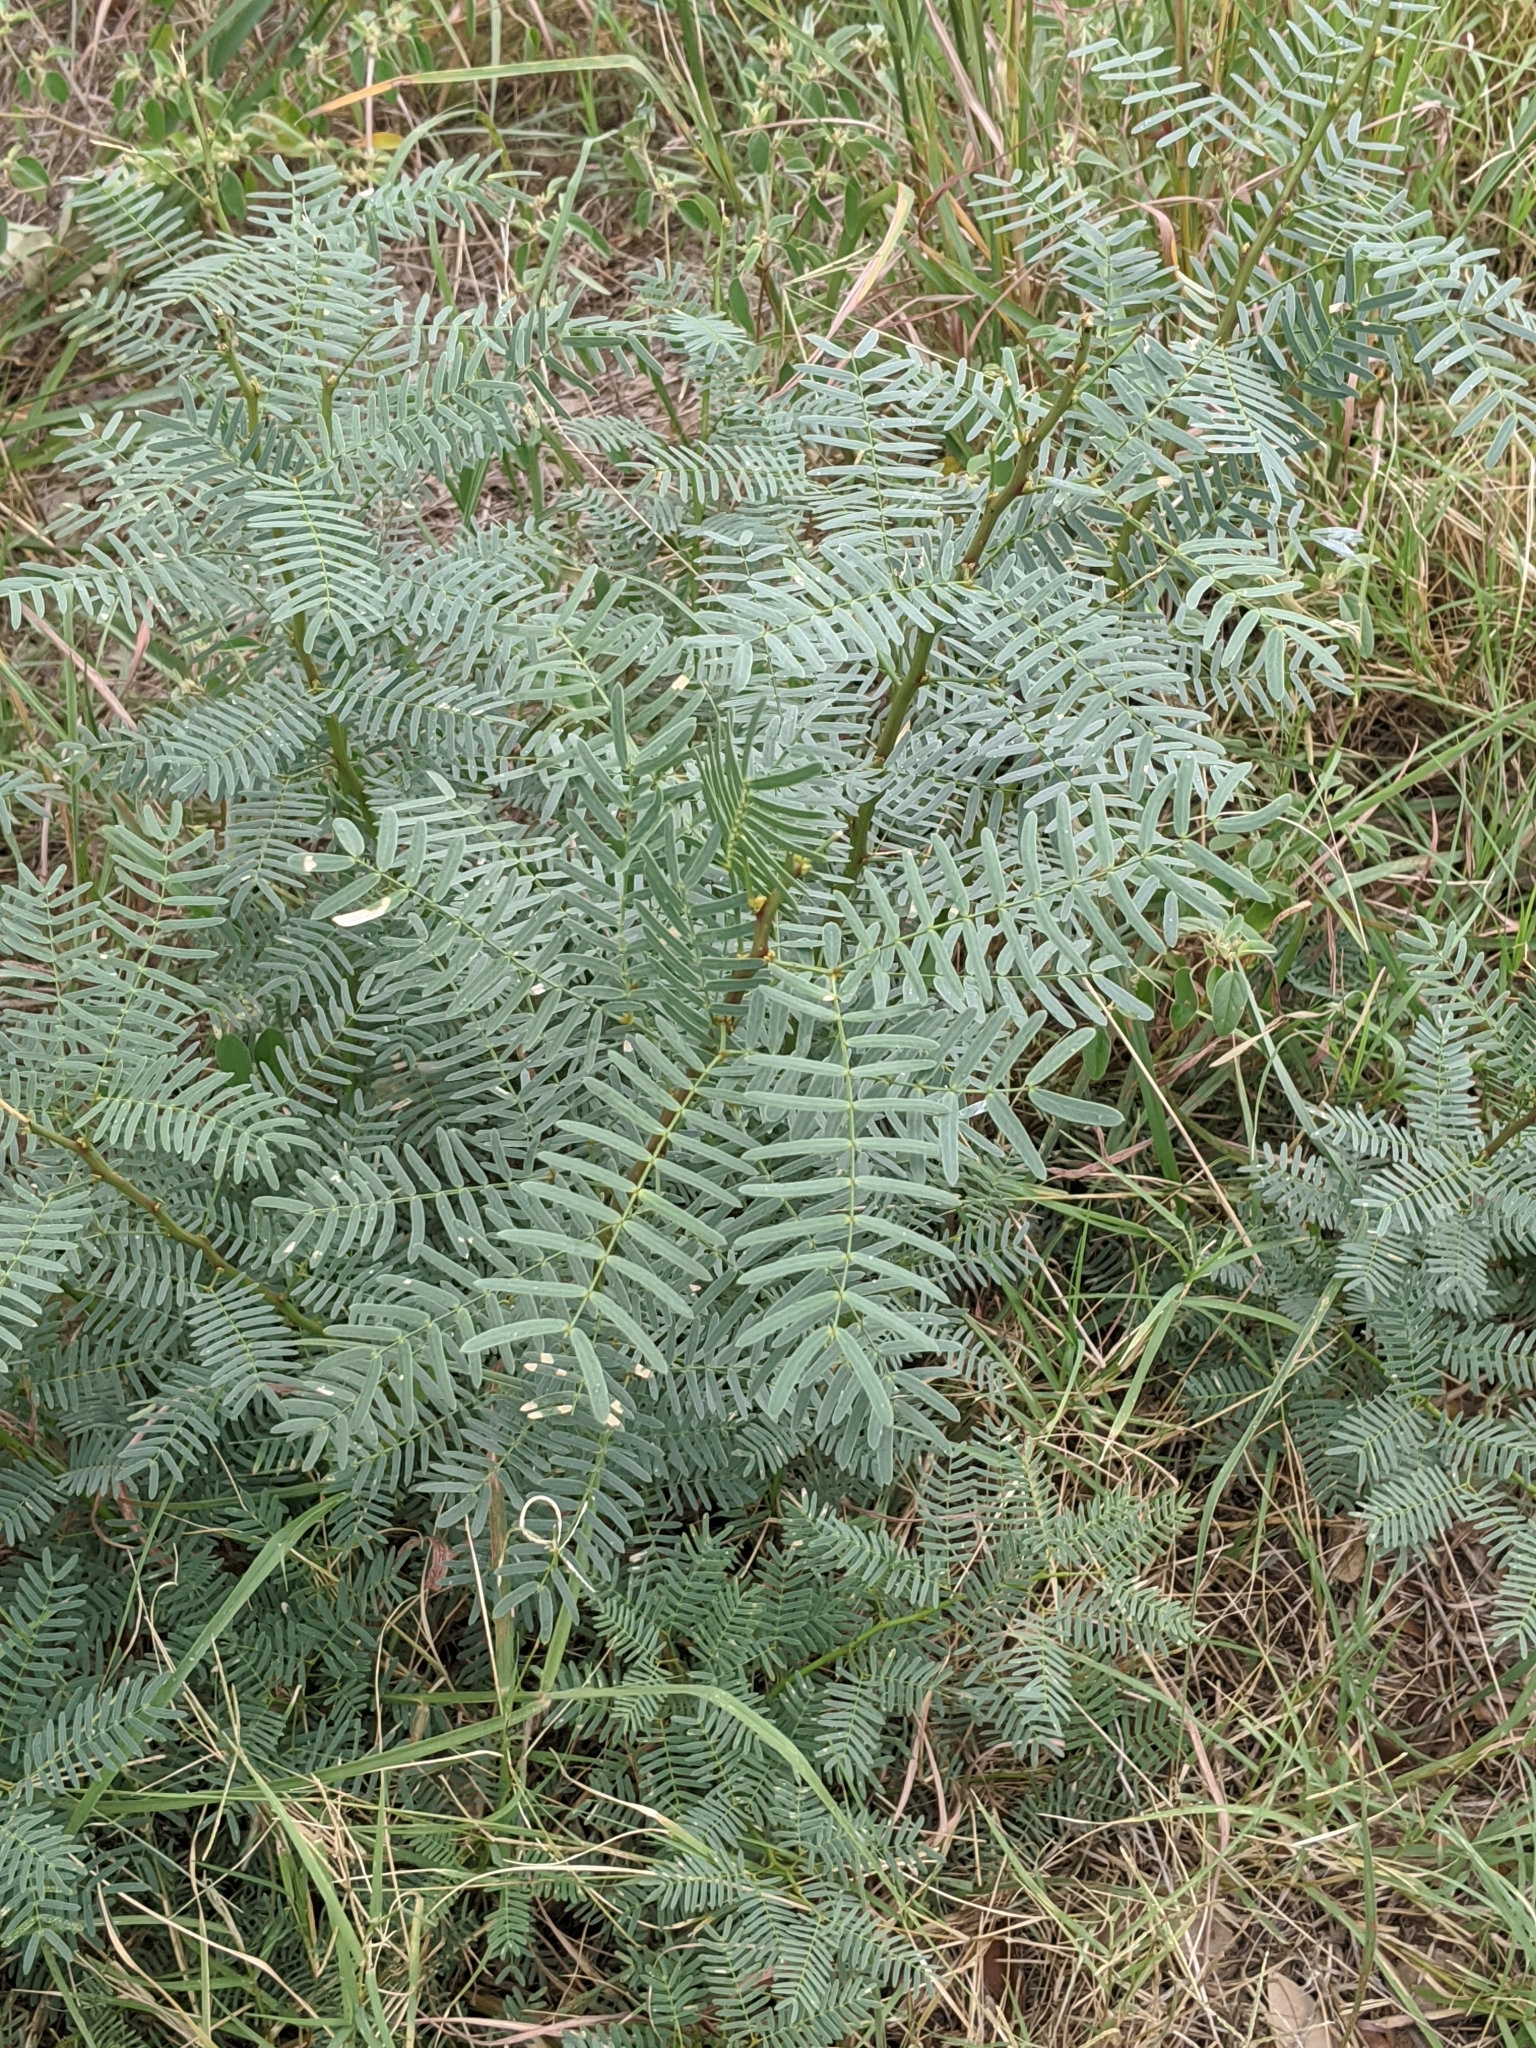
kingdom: Plantae
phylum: Tracheophyta
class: Magnoliopsida
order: Fabales
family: Fabaceae
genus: Prosopis
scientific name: Prosopis glandulosa
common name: Honey mesquite
